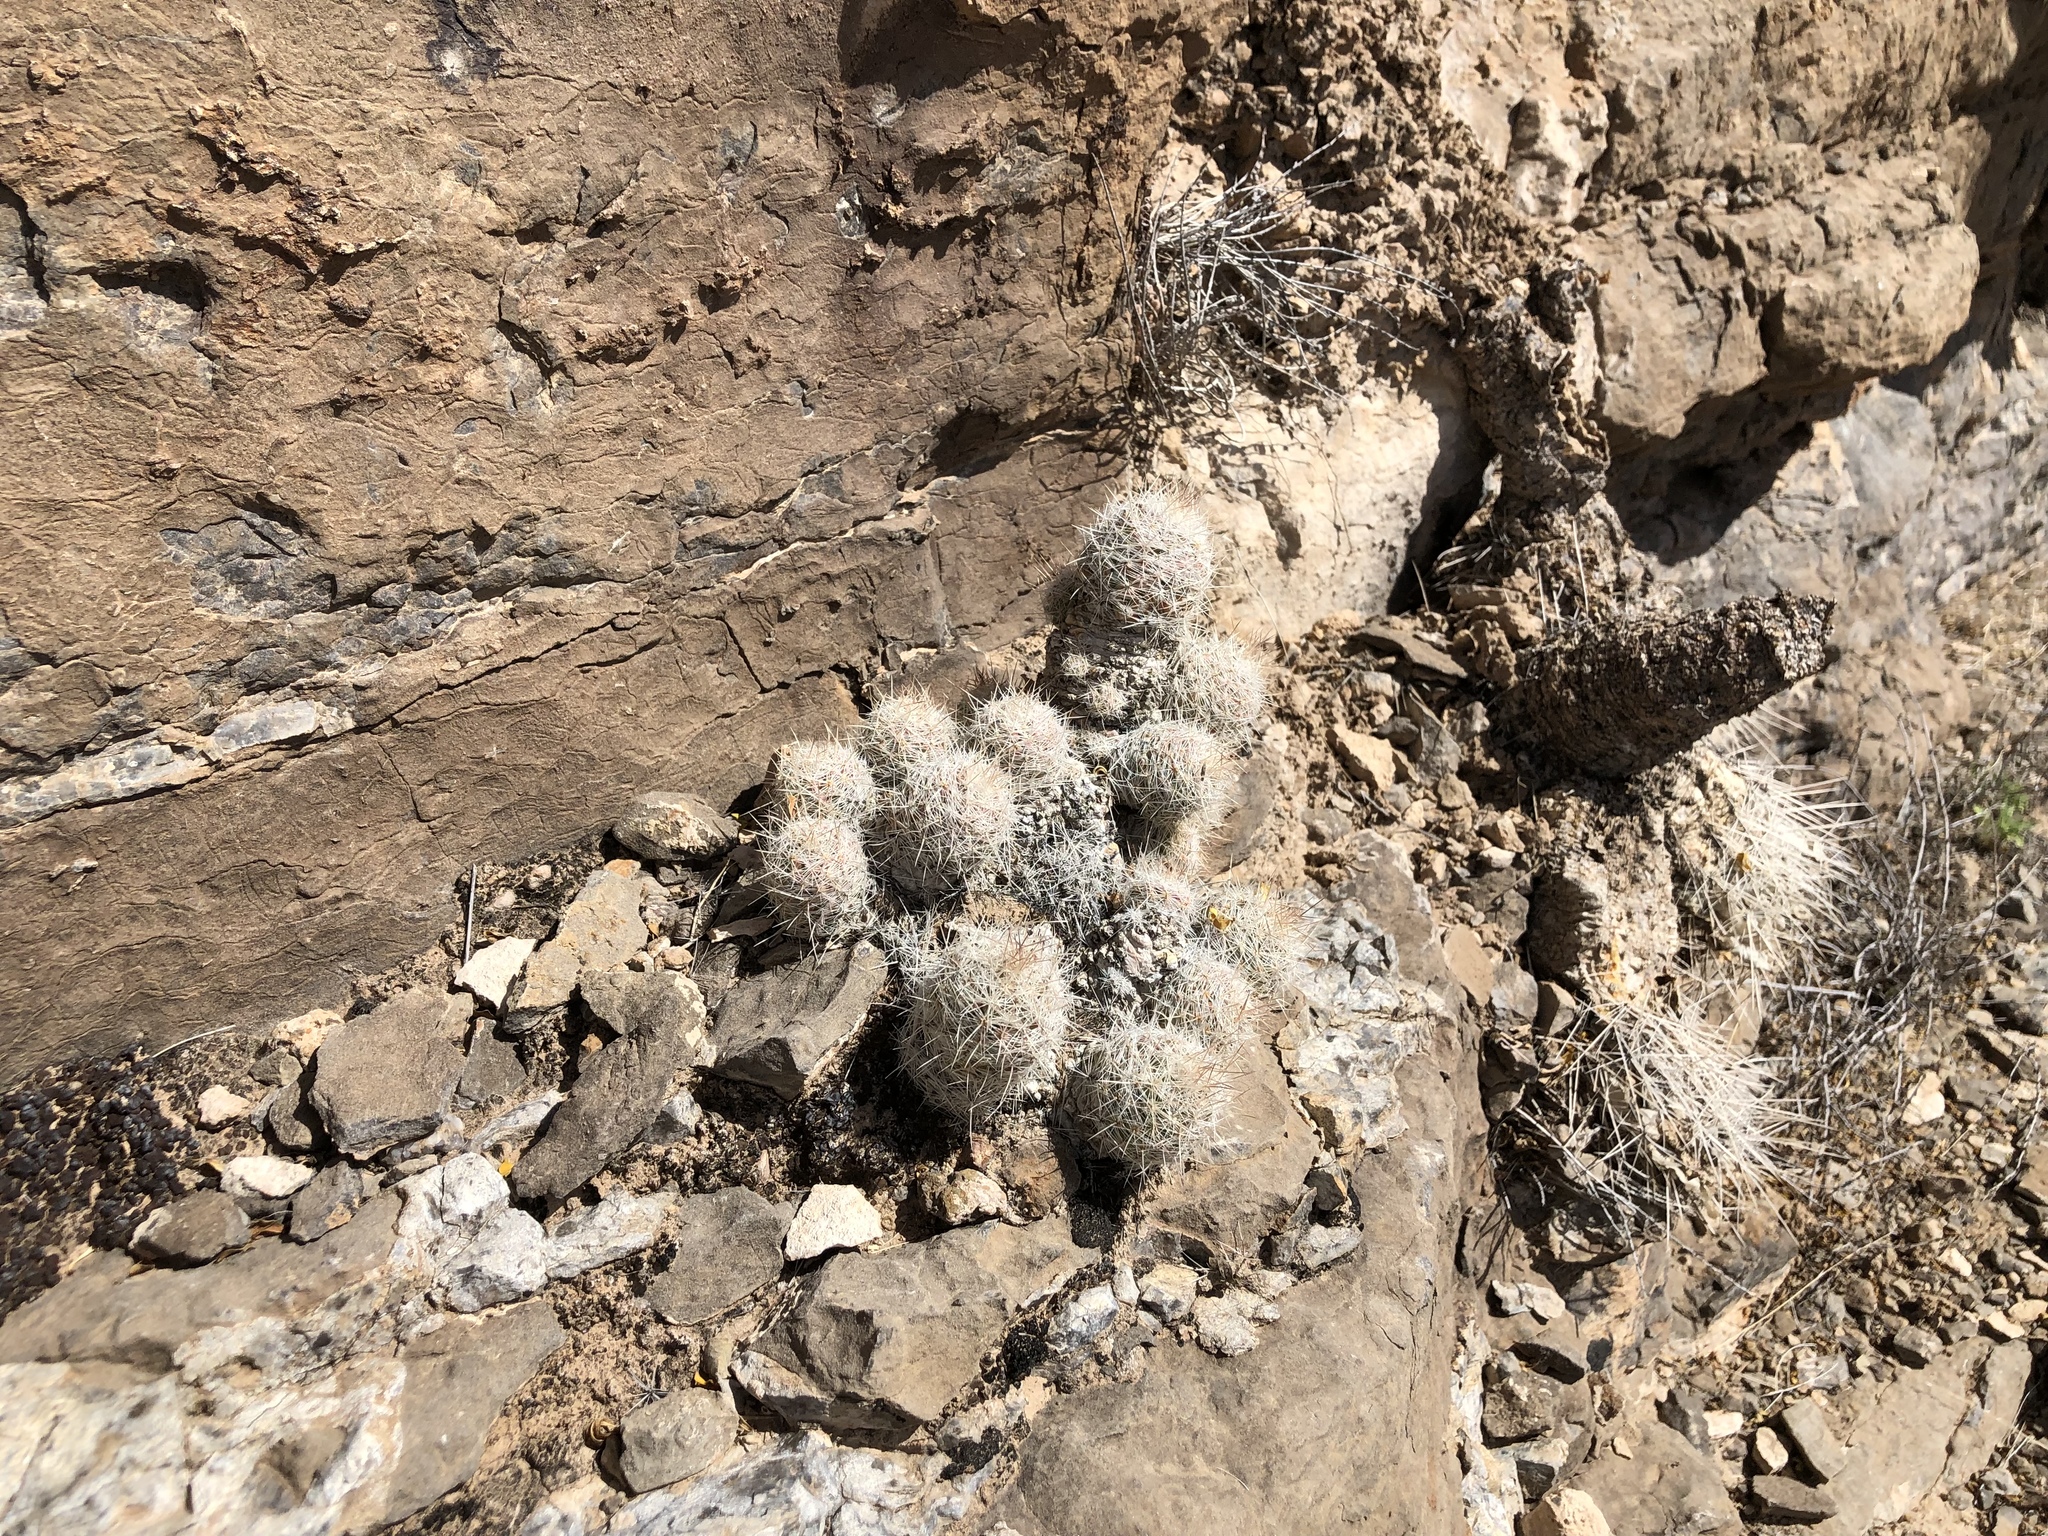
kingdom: Plantae
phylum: Tracheophyta
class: Magnoliopsida
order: Caryophyllales
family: Cactaceae
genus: Pelecyphora
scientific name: Pelecyphora tuberculosa
